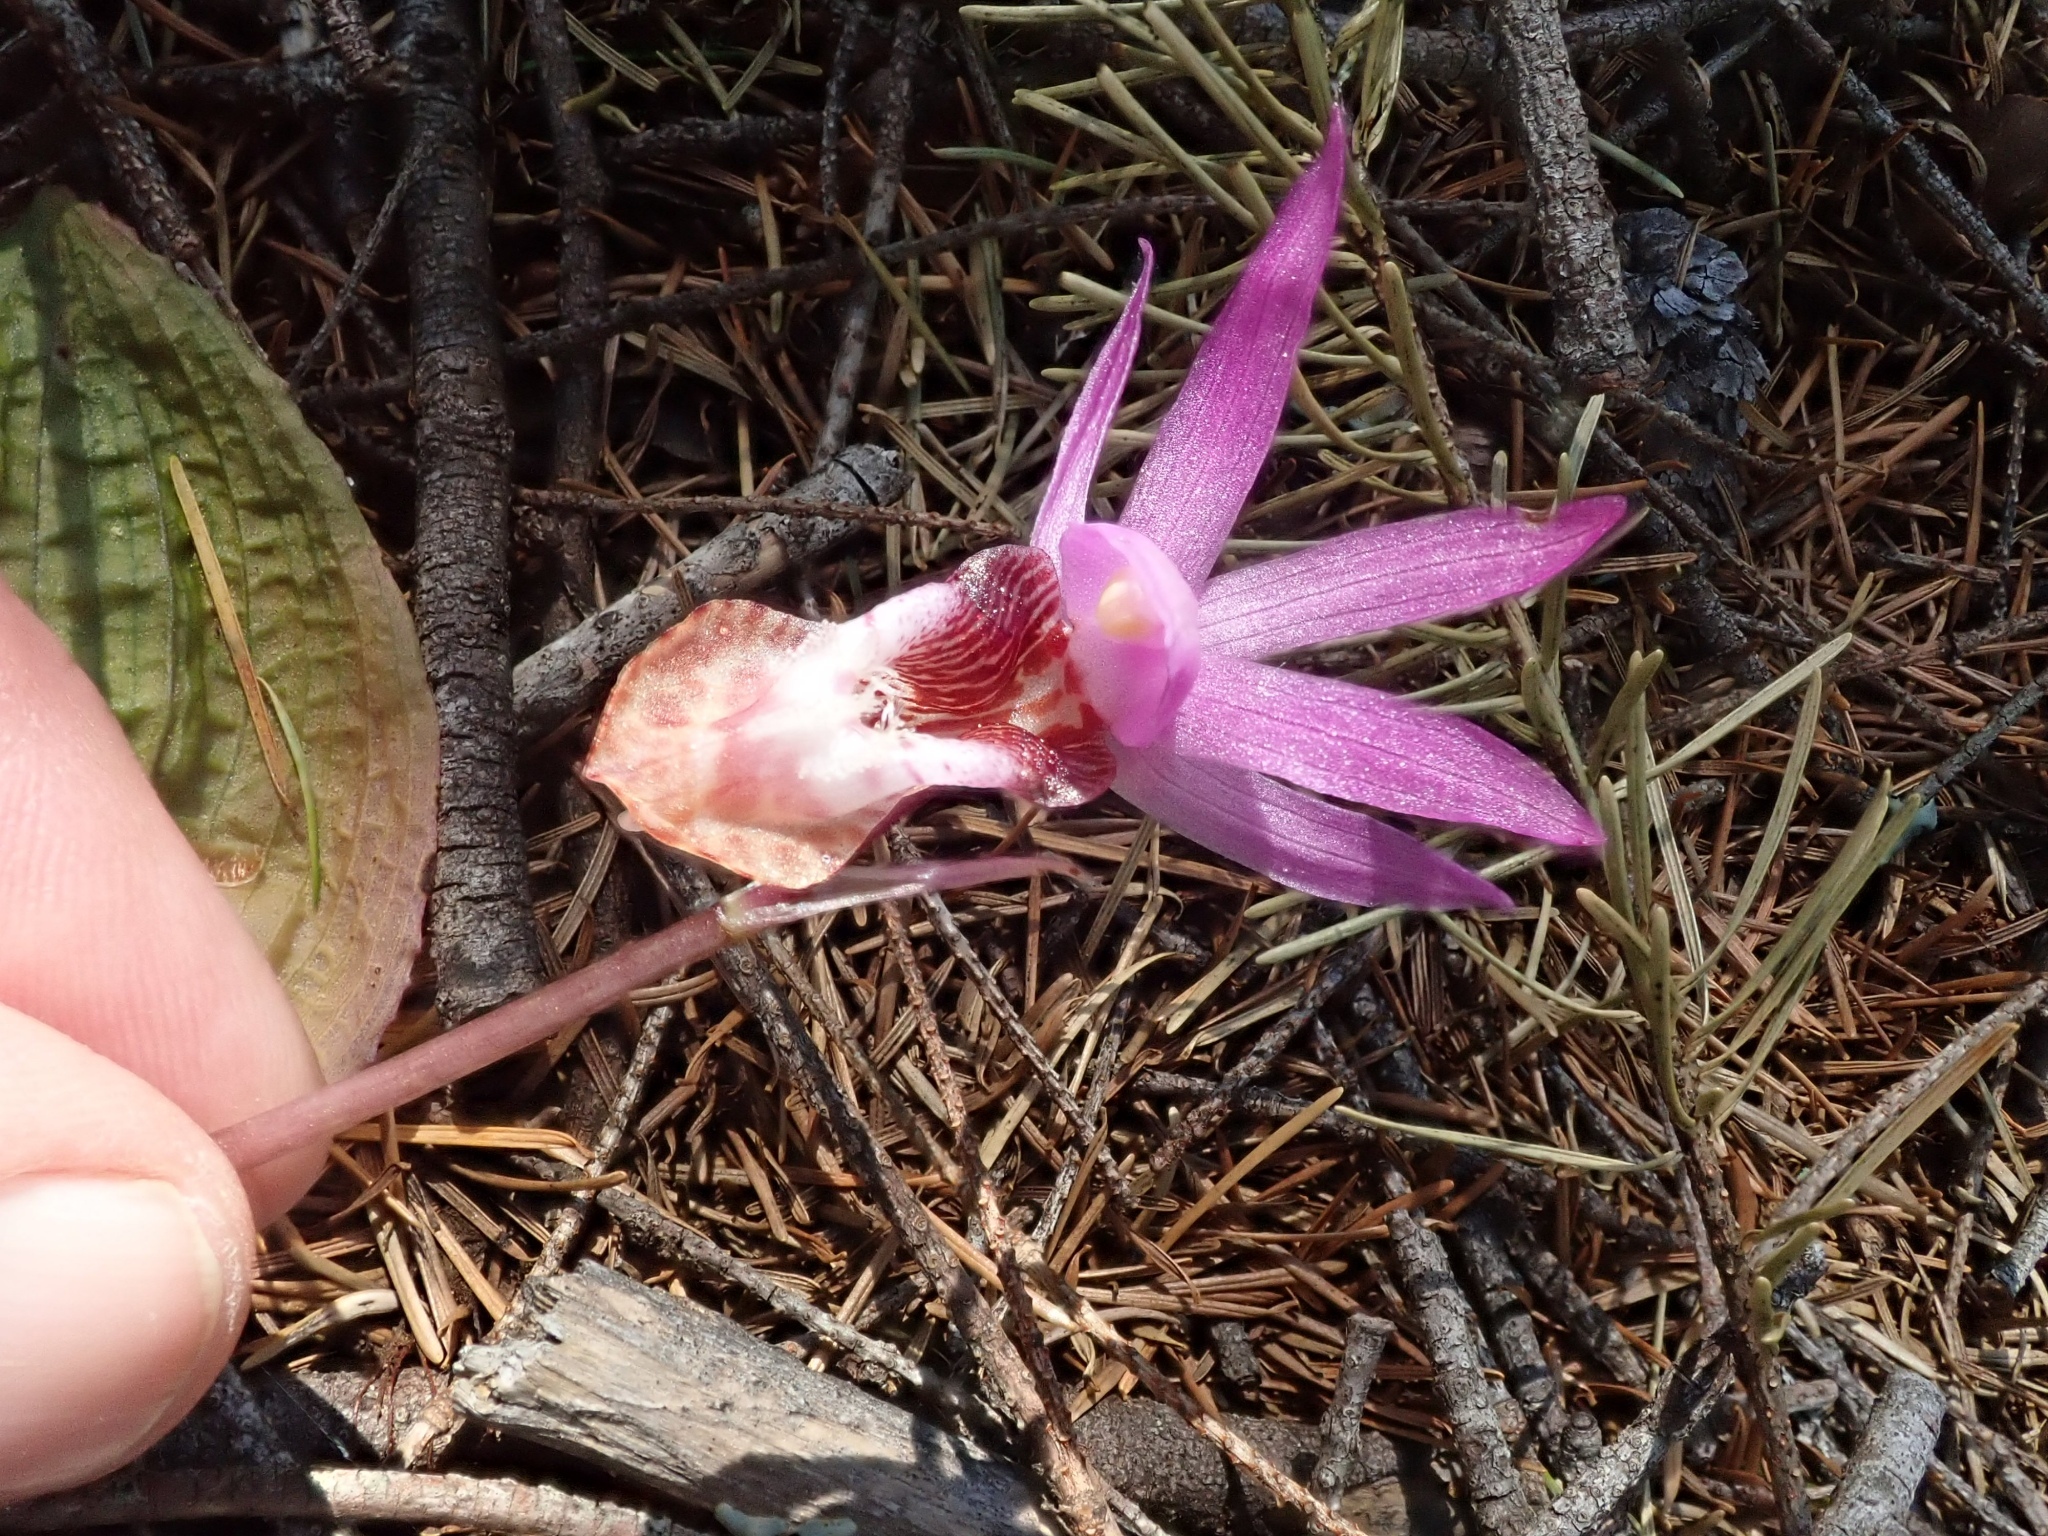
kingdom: Plantae
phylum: Tracheophyta
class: Liliopsida
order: Asparagales
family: Orchidaceae
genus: Calypso
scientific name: Calypso bulbosa
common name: Calypso
